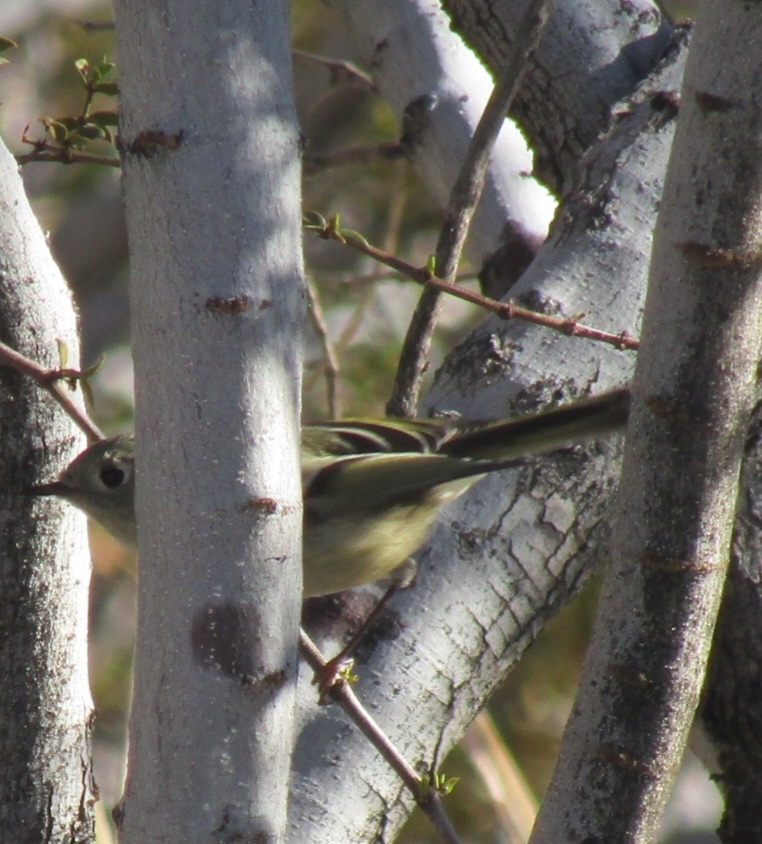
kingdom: Animalia
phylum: Chordata
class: Aves
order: Passeriformes
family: Regulidae
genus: Regulus
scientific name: Regulus calendula
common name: Ruby-crowned kinglet
